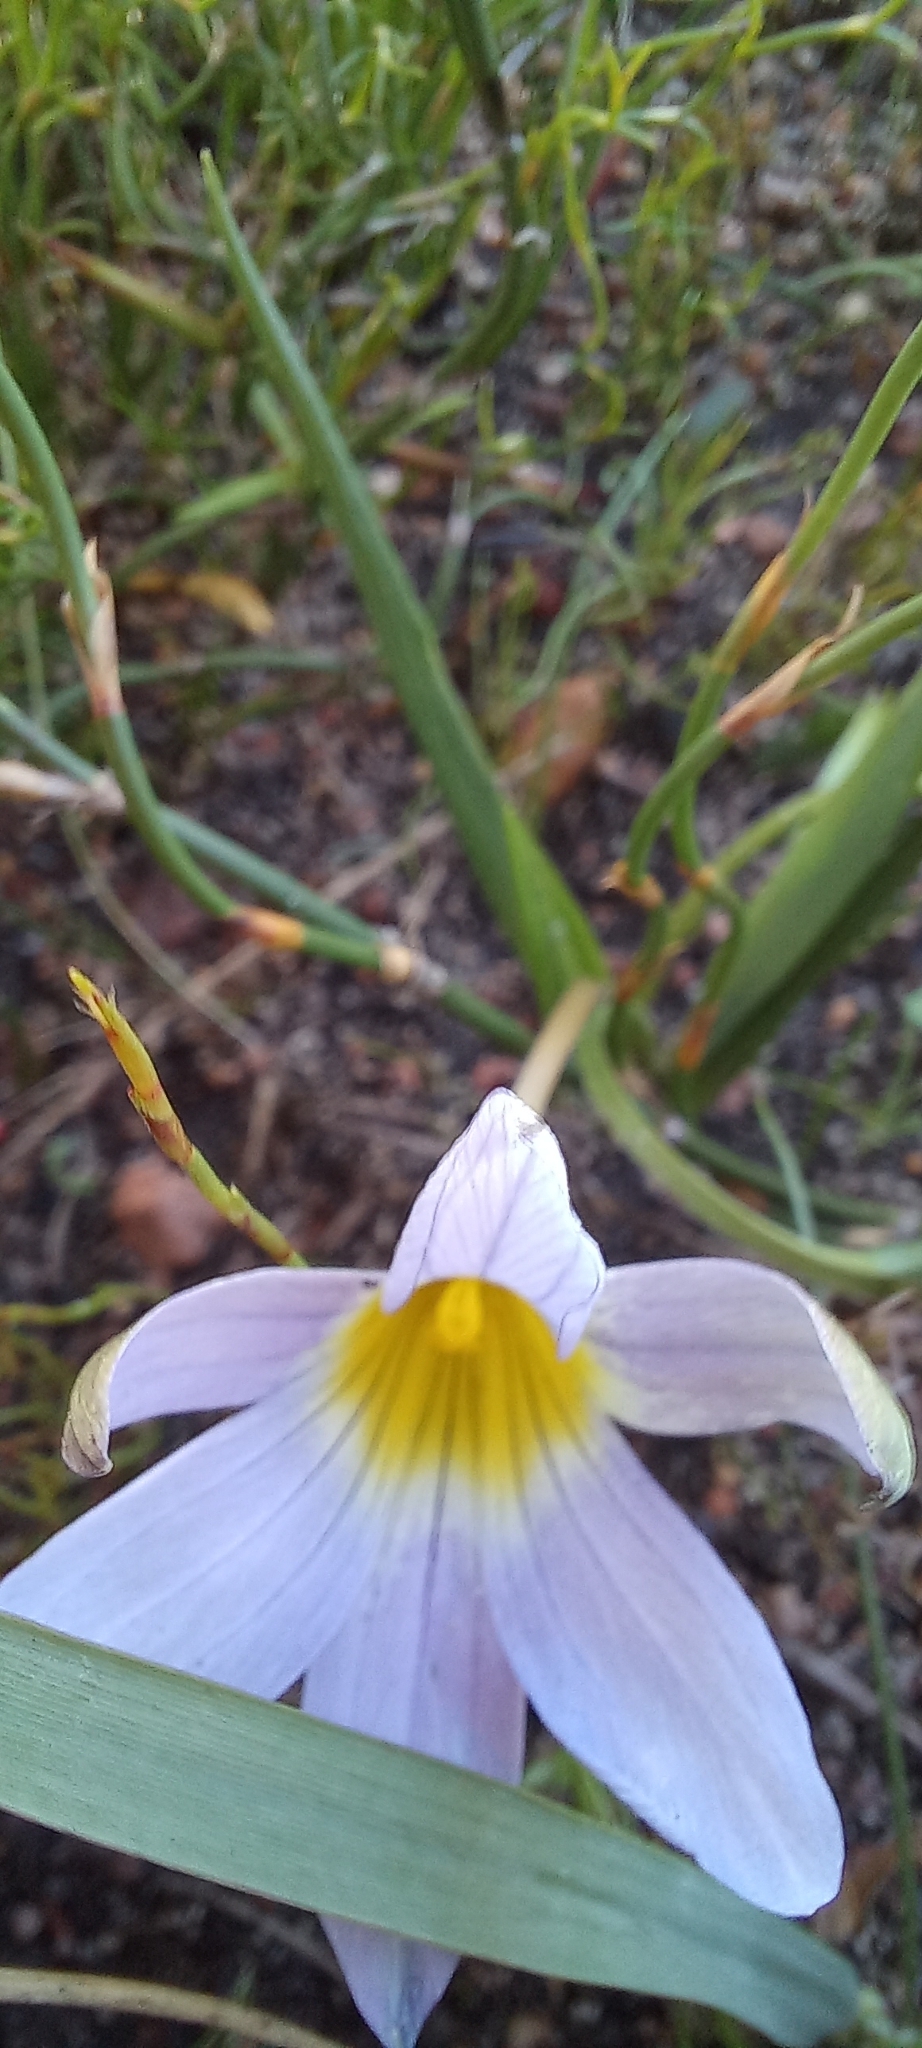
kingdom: Plantae
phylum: Tracheophyta
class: Liliopsida
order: Asparagales
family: Iridaceae
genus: Romulea
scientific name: Romulea tabularis
